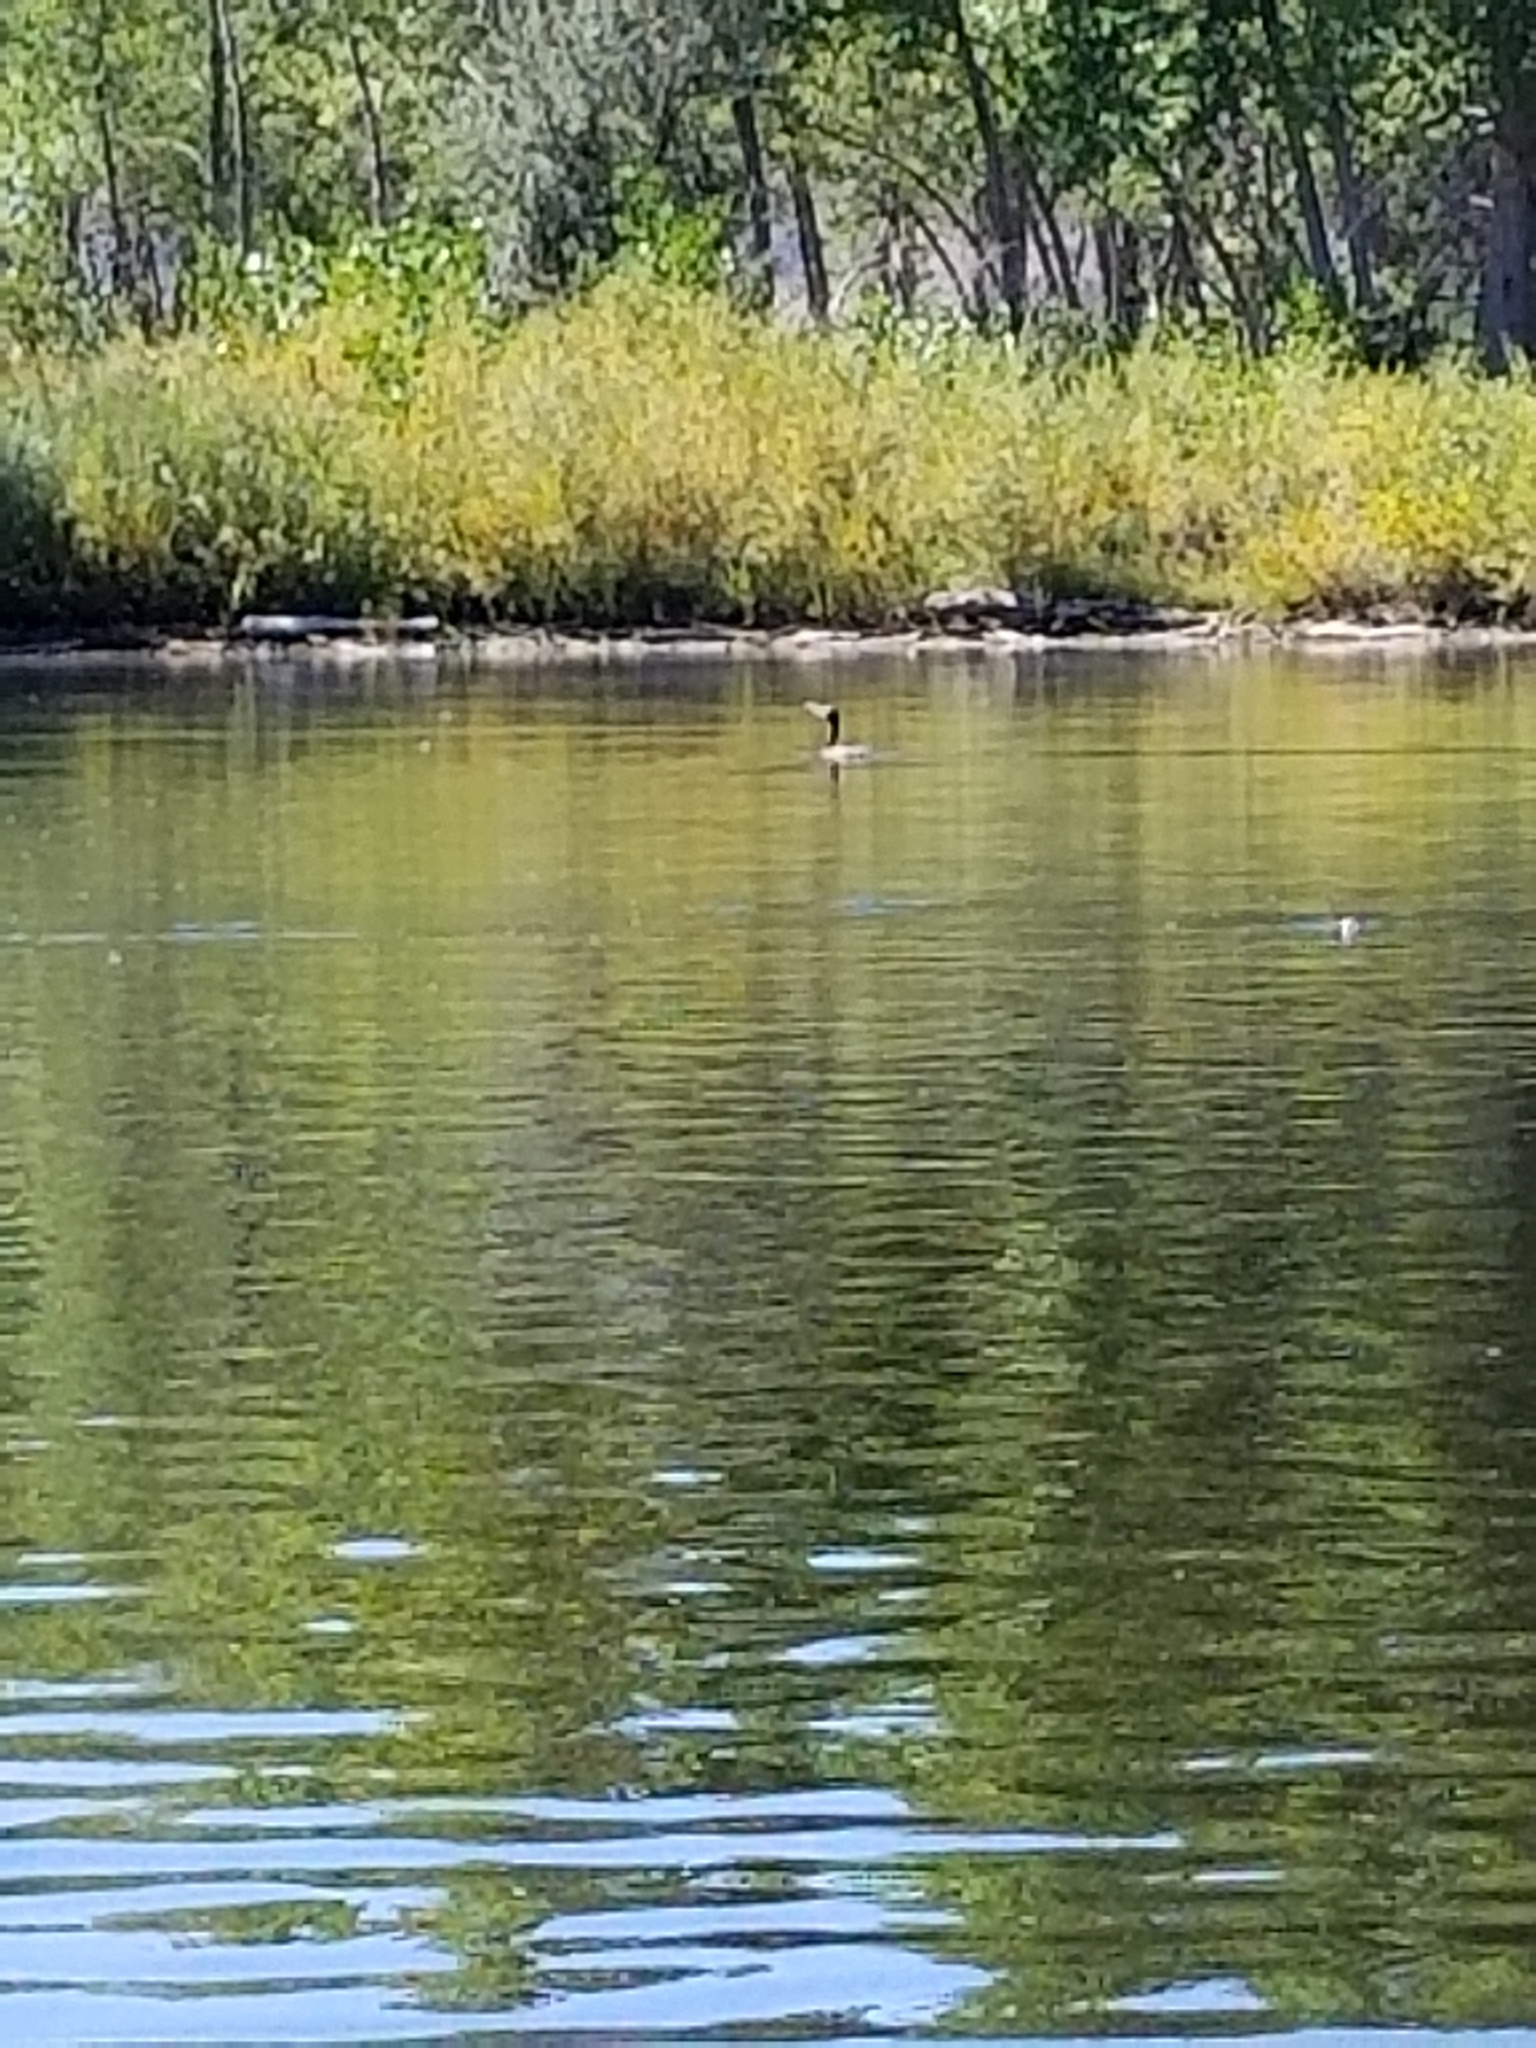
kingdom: Animalia
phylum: Chordata
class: Aves
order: Suliformes
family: Phalacrocoracidae
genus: Phalacrocorax
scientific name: Phalacrocorax auritus
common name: Double-crested cormorant
